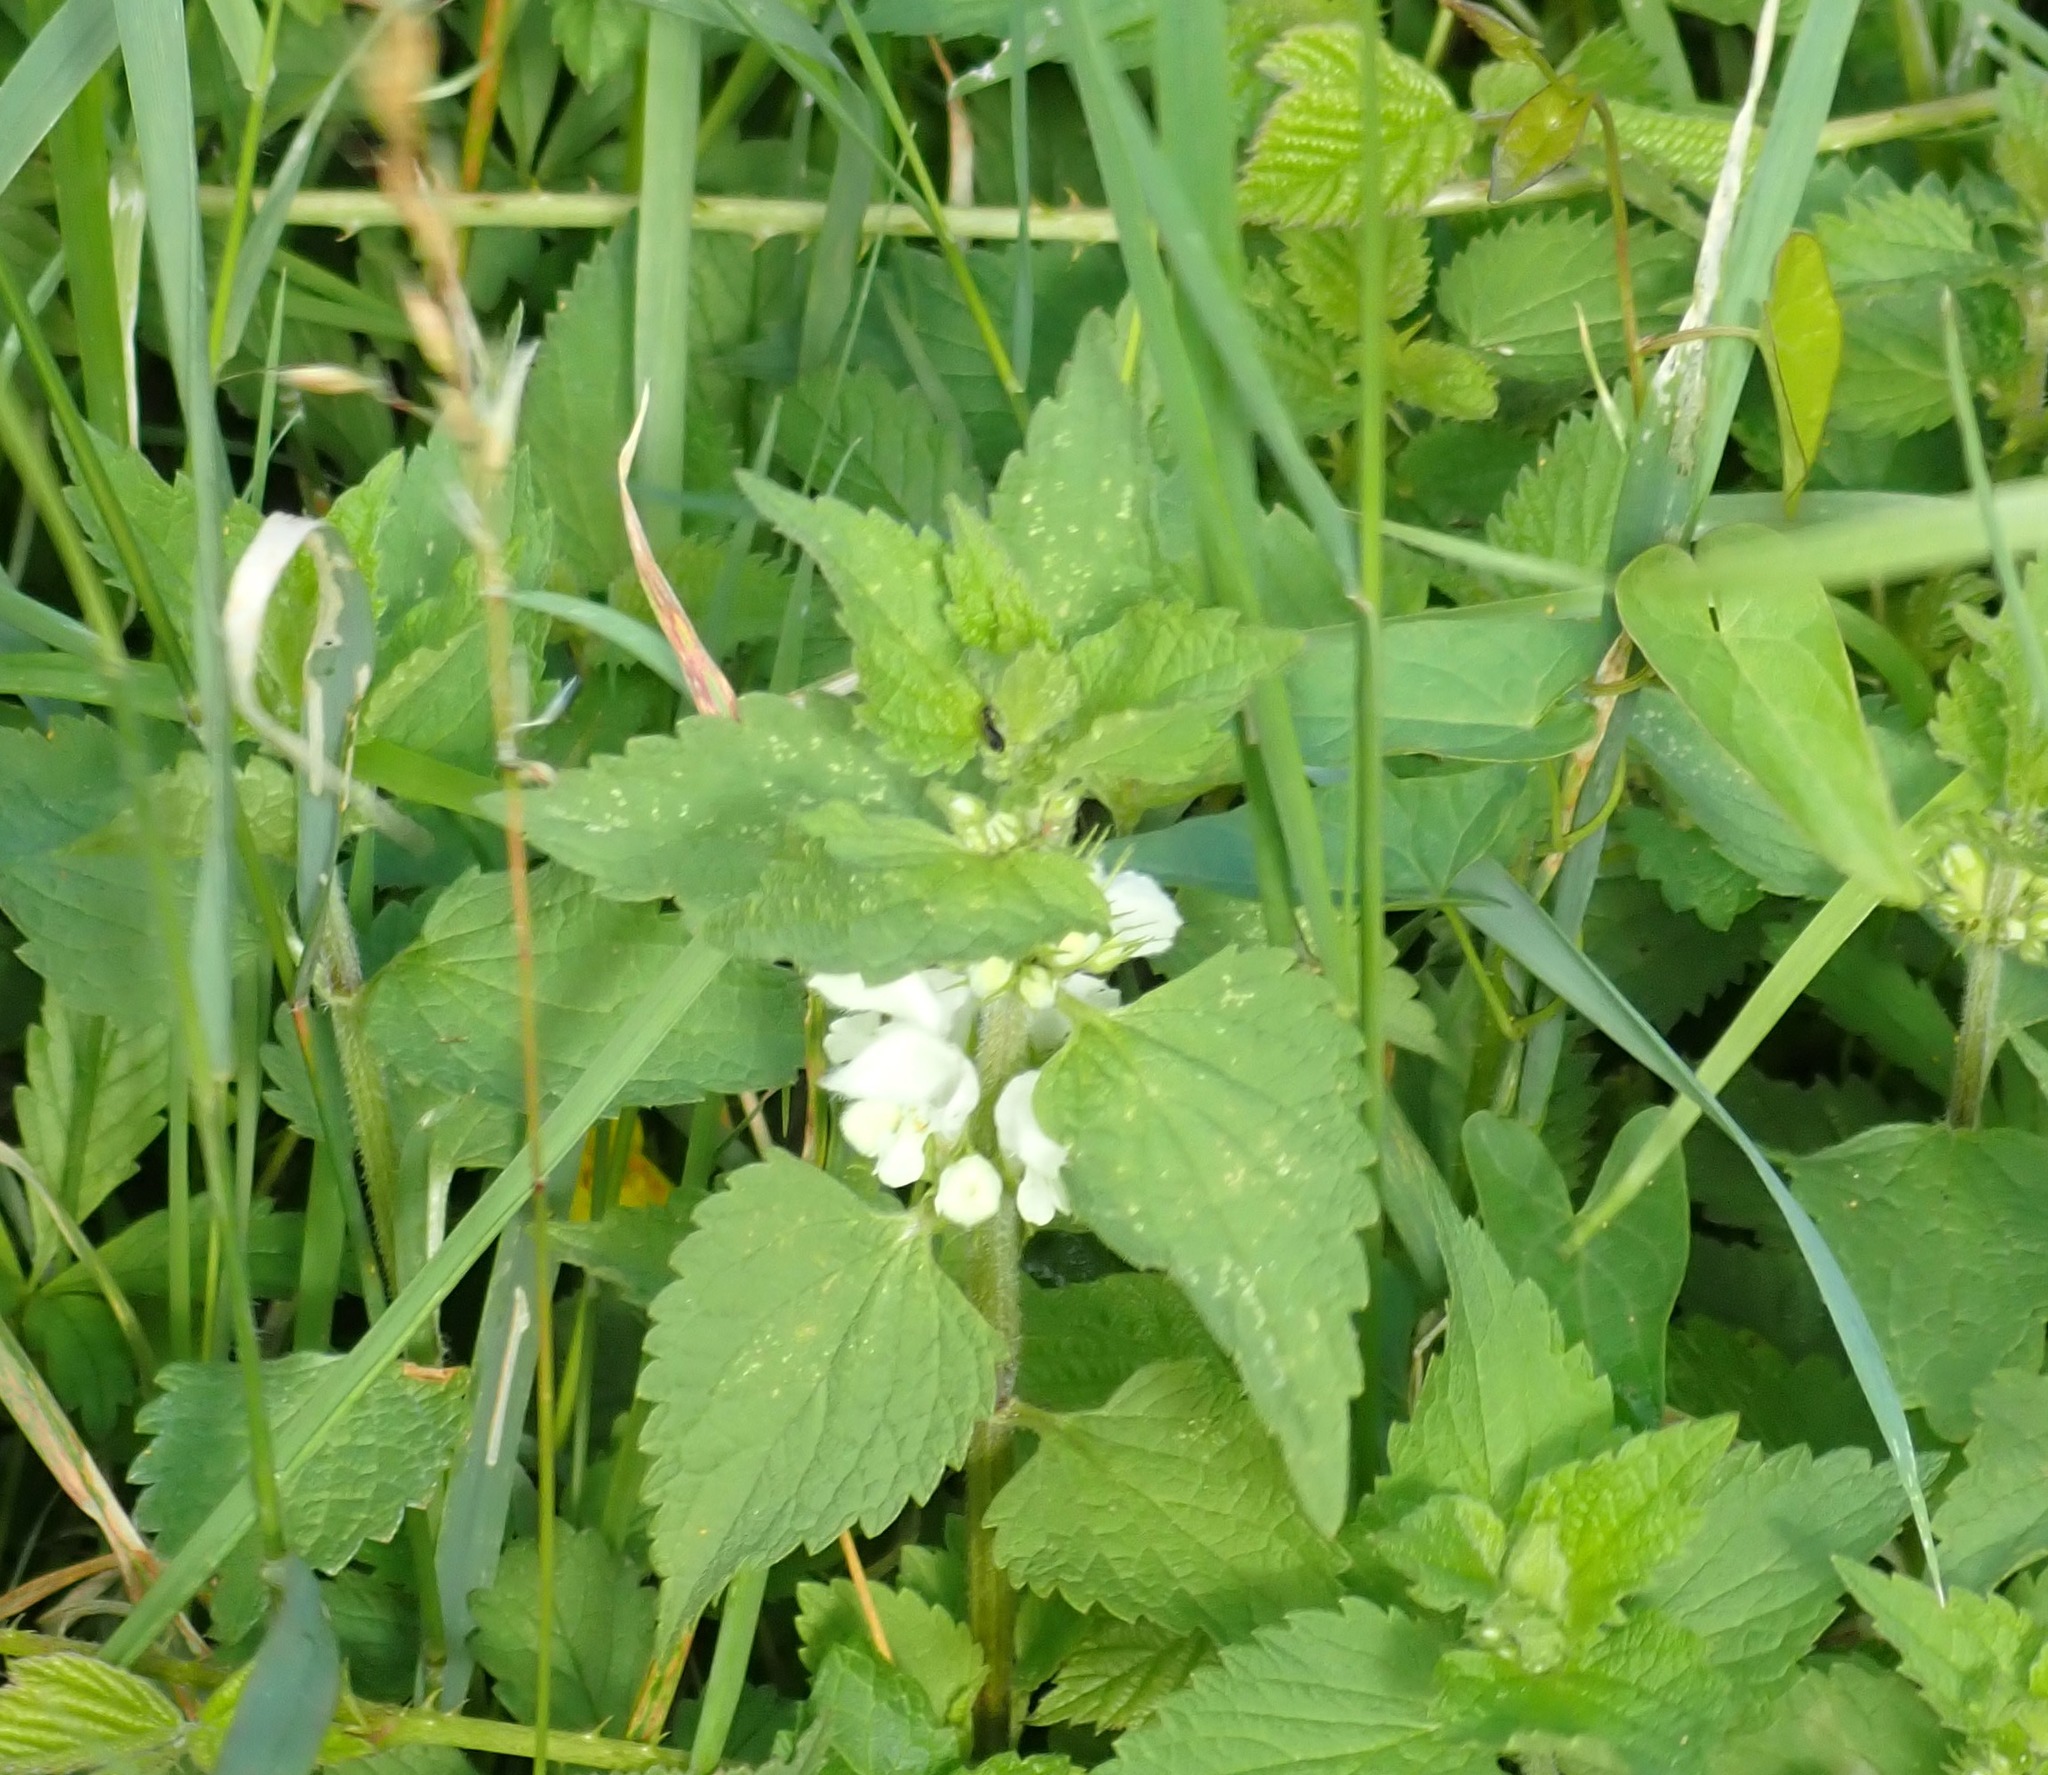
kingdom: Plantae
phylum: Tracheophyta
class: Magnoliopsida
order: Lamiales
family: Lamiaceae
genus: Lamium
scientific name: Lamium album
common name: White dead-nettle
